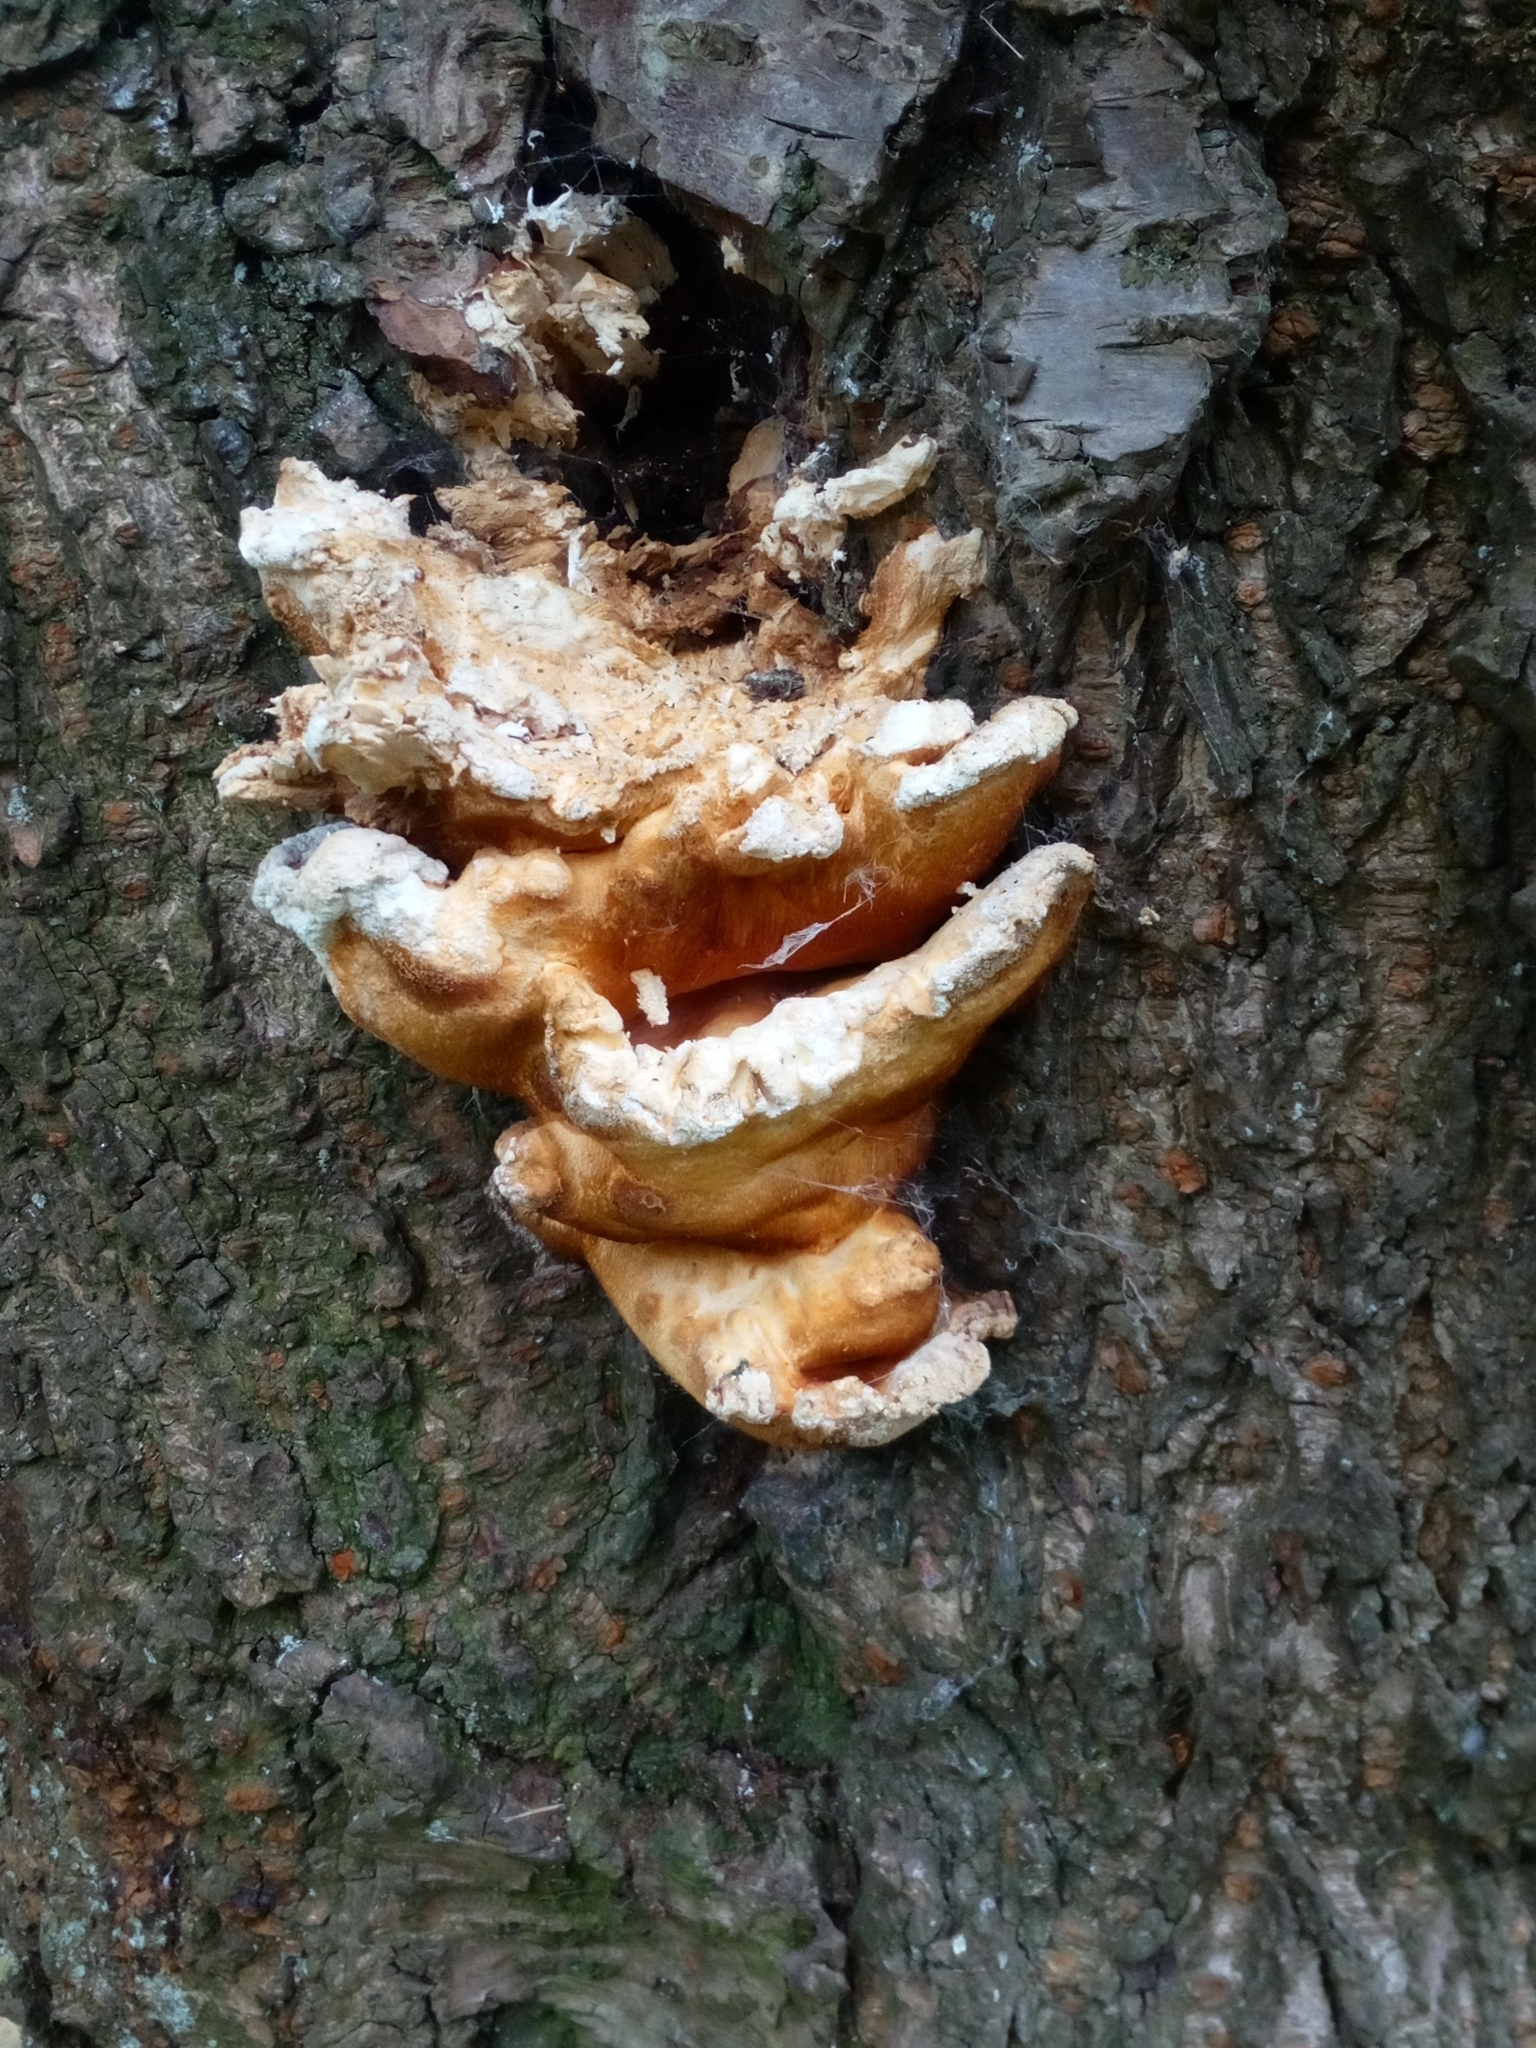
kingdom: Fungi
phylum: Basidiomycota
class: Agaricomycetes
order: Polyporales
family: Laetiporaceae
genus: Laetiporus
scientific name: Laetiporus sulphureus
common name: Chicken of the woods
